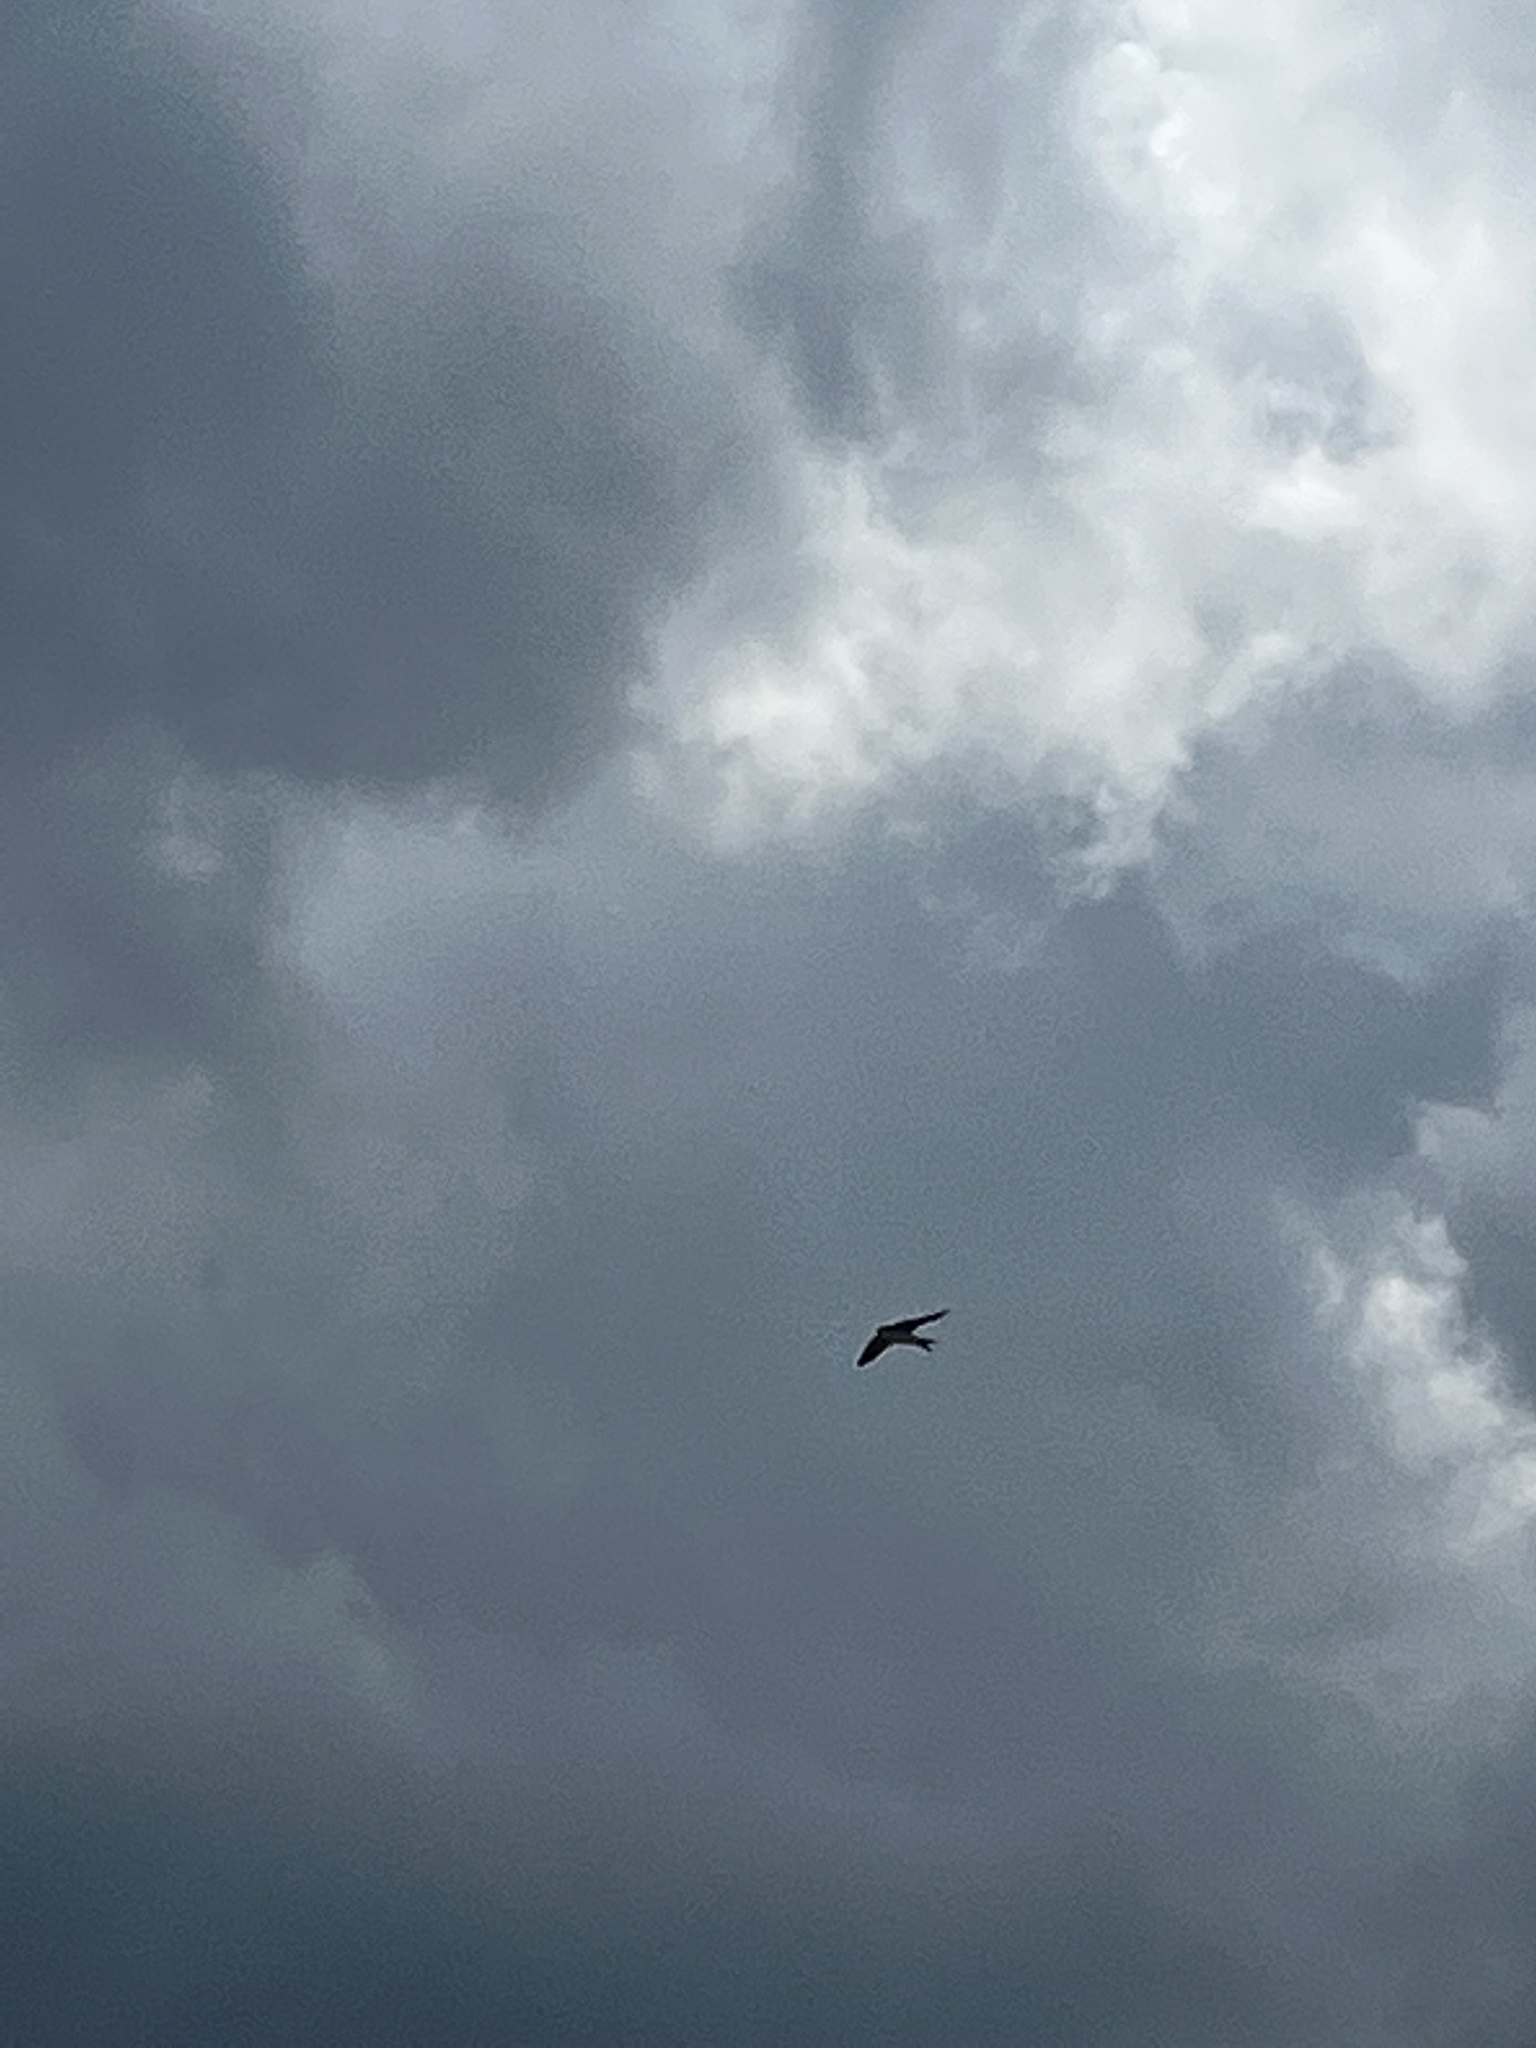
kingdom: Animalia
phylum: Chordata
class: Aves
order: Passeriformes
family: Hirundinidae
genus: Delichon
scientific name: Delichon urbicum
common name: Common house martin
